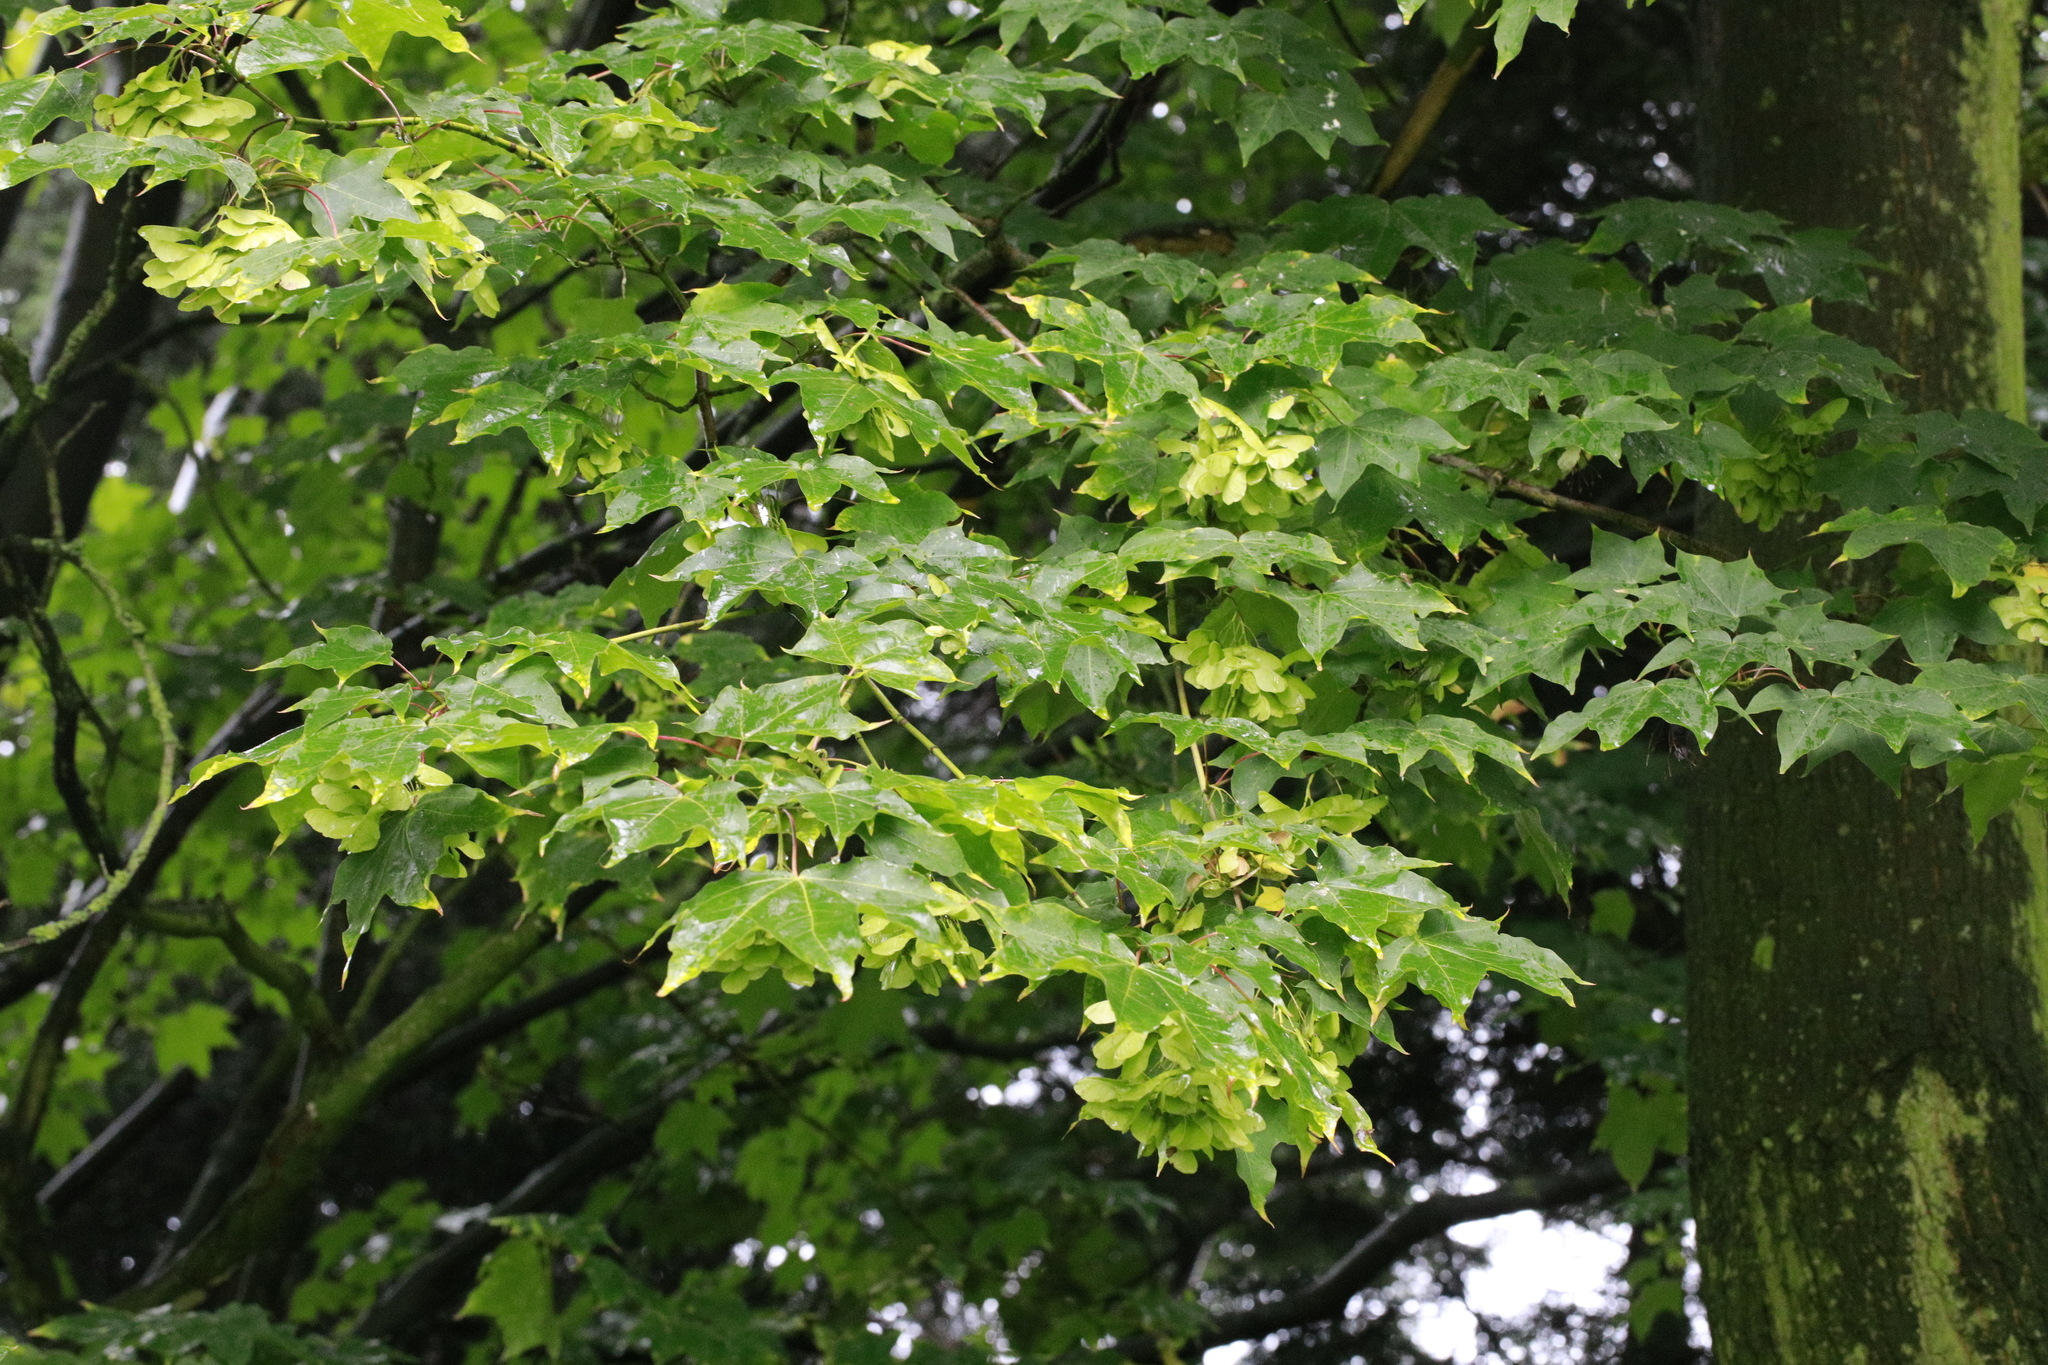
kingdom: Plantae
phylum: Tracheophyta
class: Magnoliopsida
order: Sapindales
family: Sapindaceae
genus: Acer
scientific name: Acer cappadocicum
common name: Cappadocian maple
